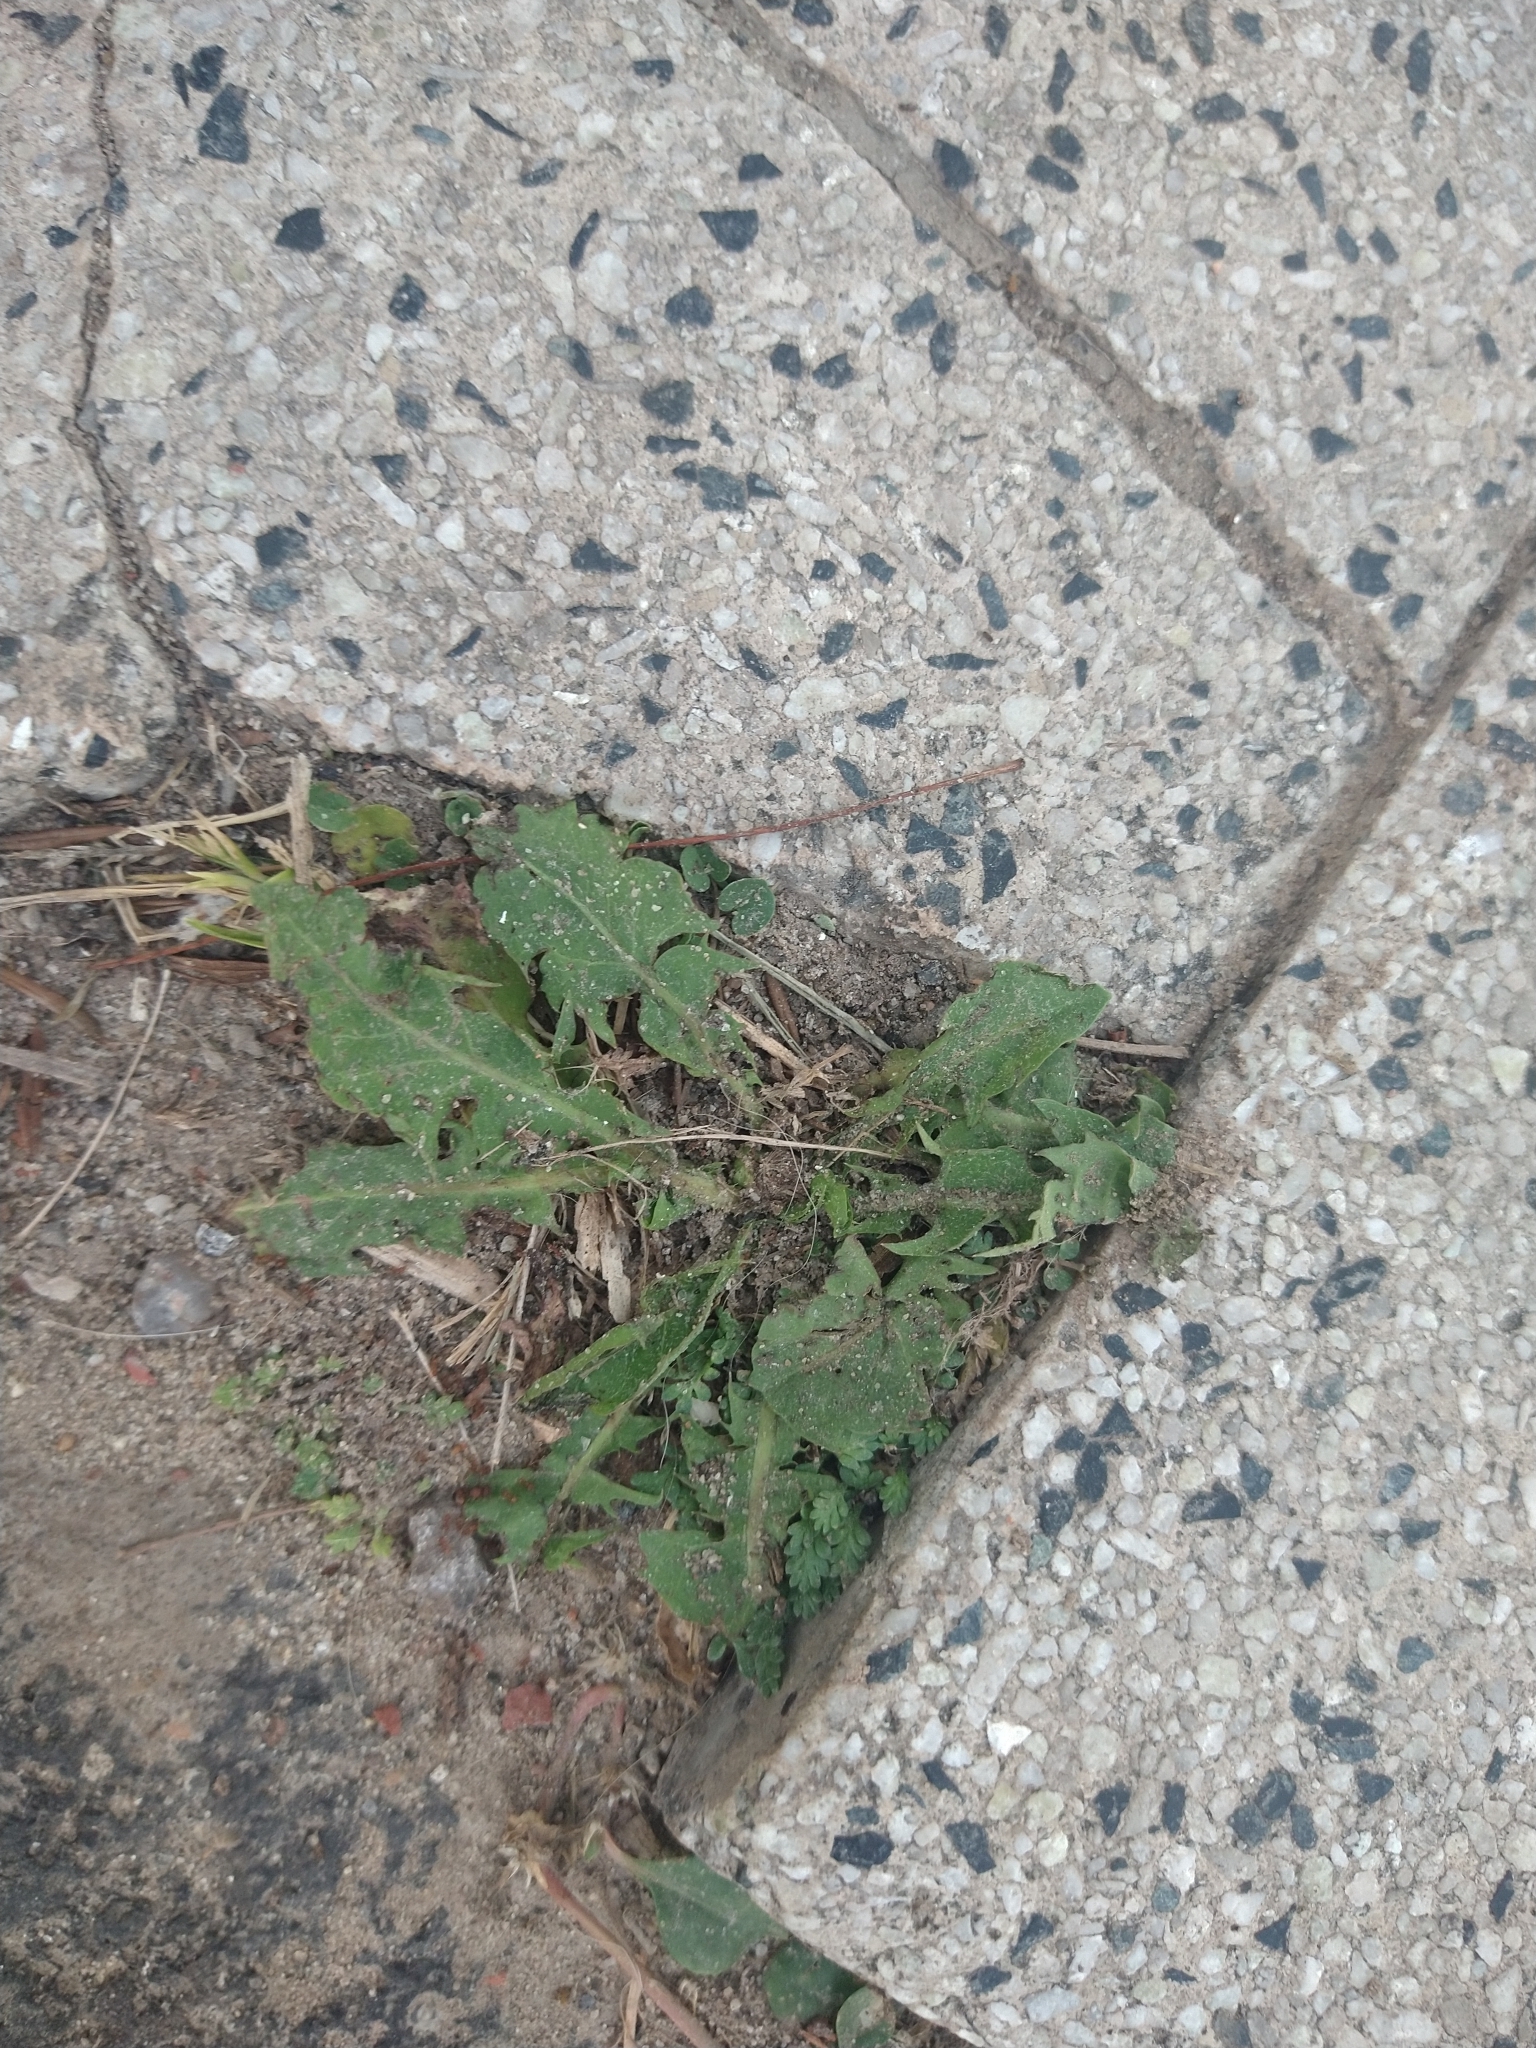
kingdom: Plantae
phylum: Tracheophyta
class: Magnoliopsida
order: Asterales
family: Asteraceae
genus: Taraxacum
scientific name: Taraxacum officinale
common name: Common dandelion
